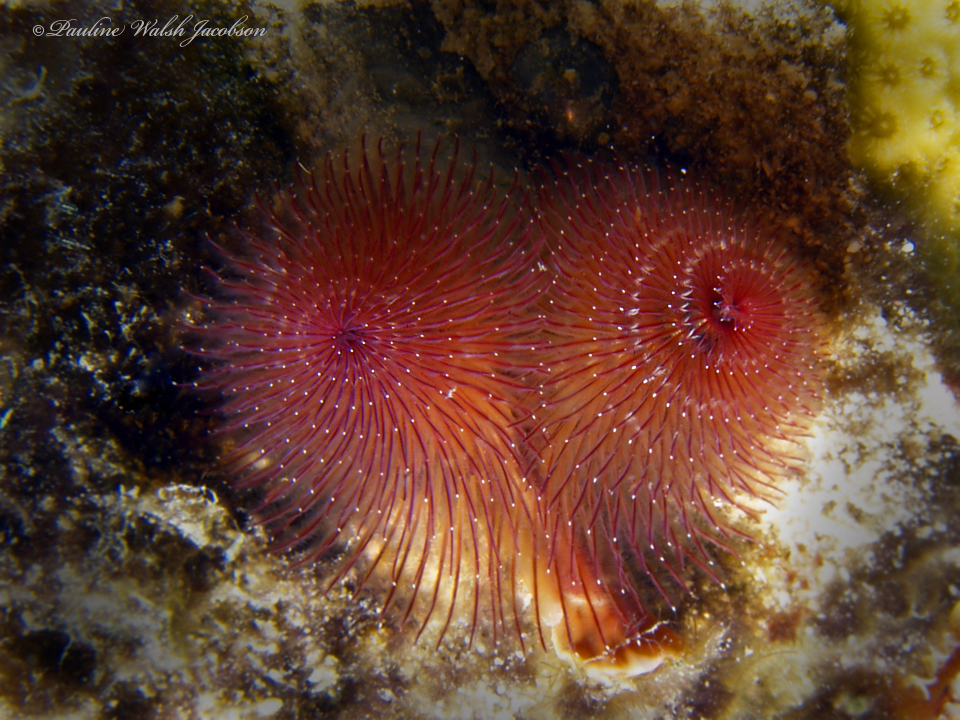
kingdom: Animalia
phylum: Annelida
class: Polychaeta
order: Sabellida
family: Serpulidae
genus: Spirobranchus
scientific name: Spirobranchus giganteus
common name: Christmas tree worm
